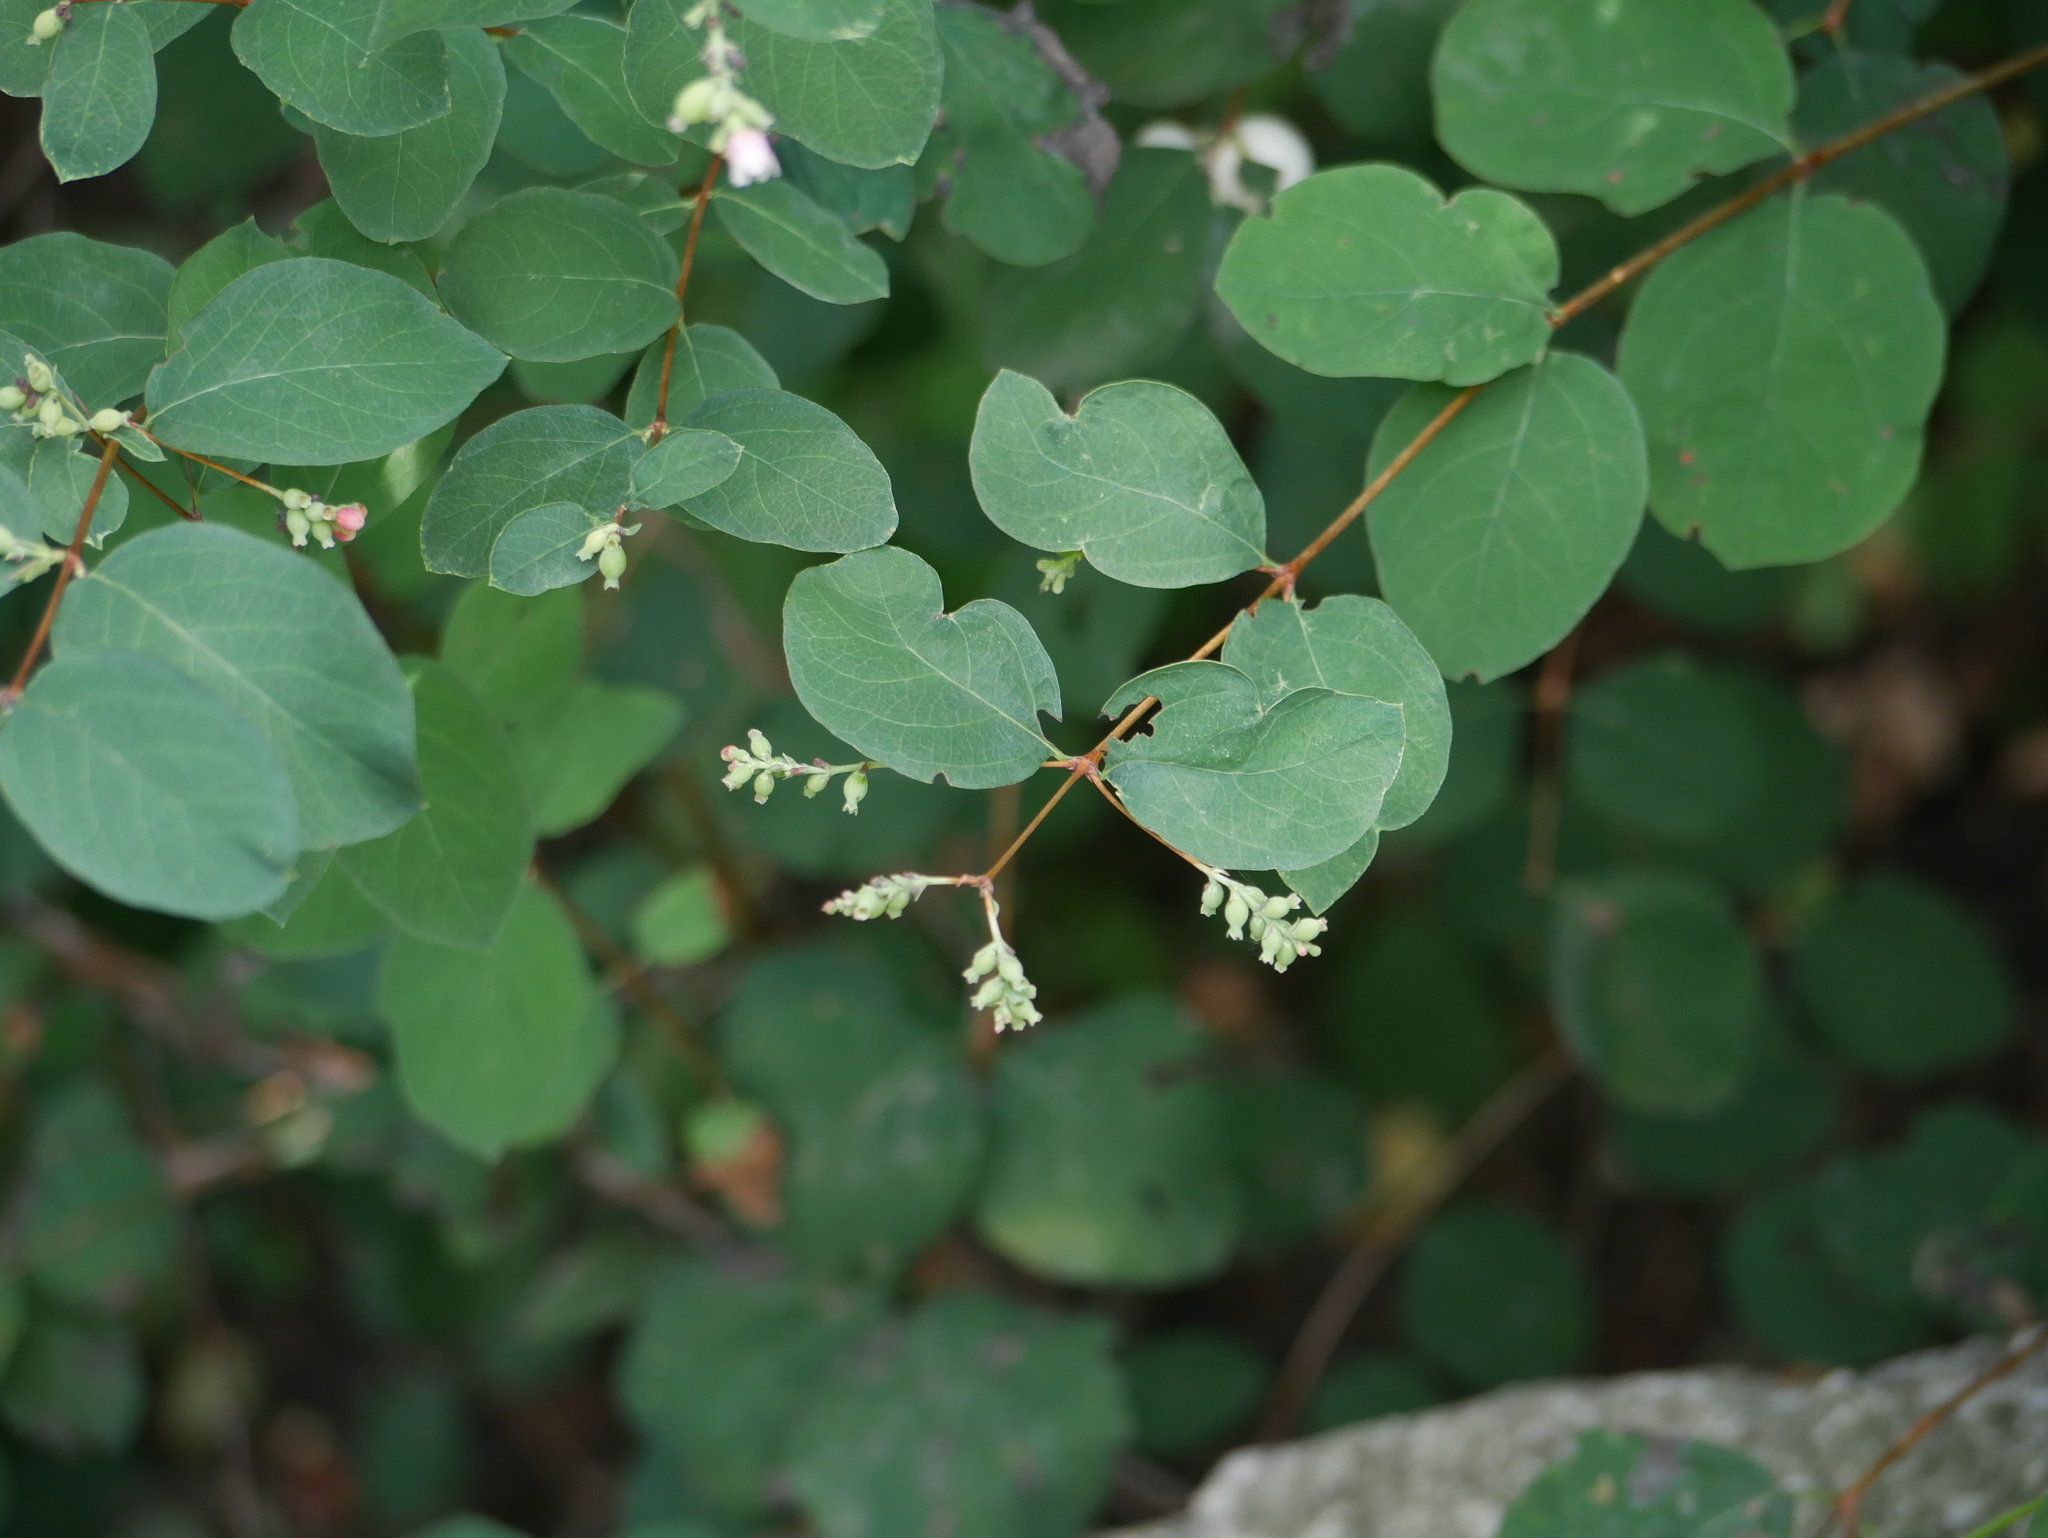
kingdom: Plantae
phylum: Tracheophyta
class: Magnoliopsida
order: Dipsacales
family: Caprifoliaceae
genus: Symphoricarpos
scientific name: Symphoricarpos albus
